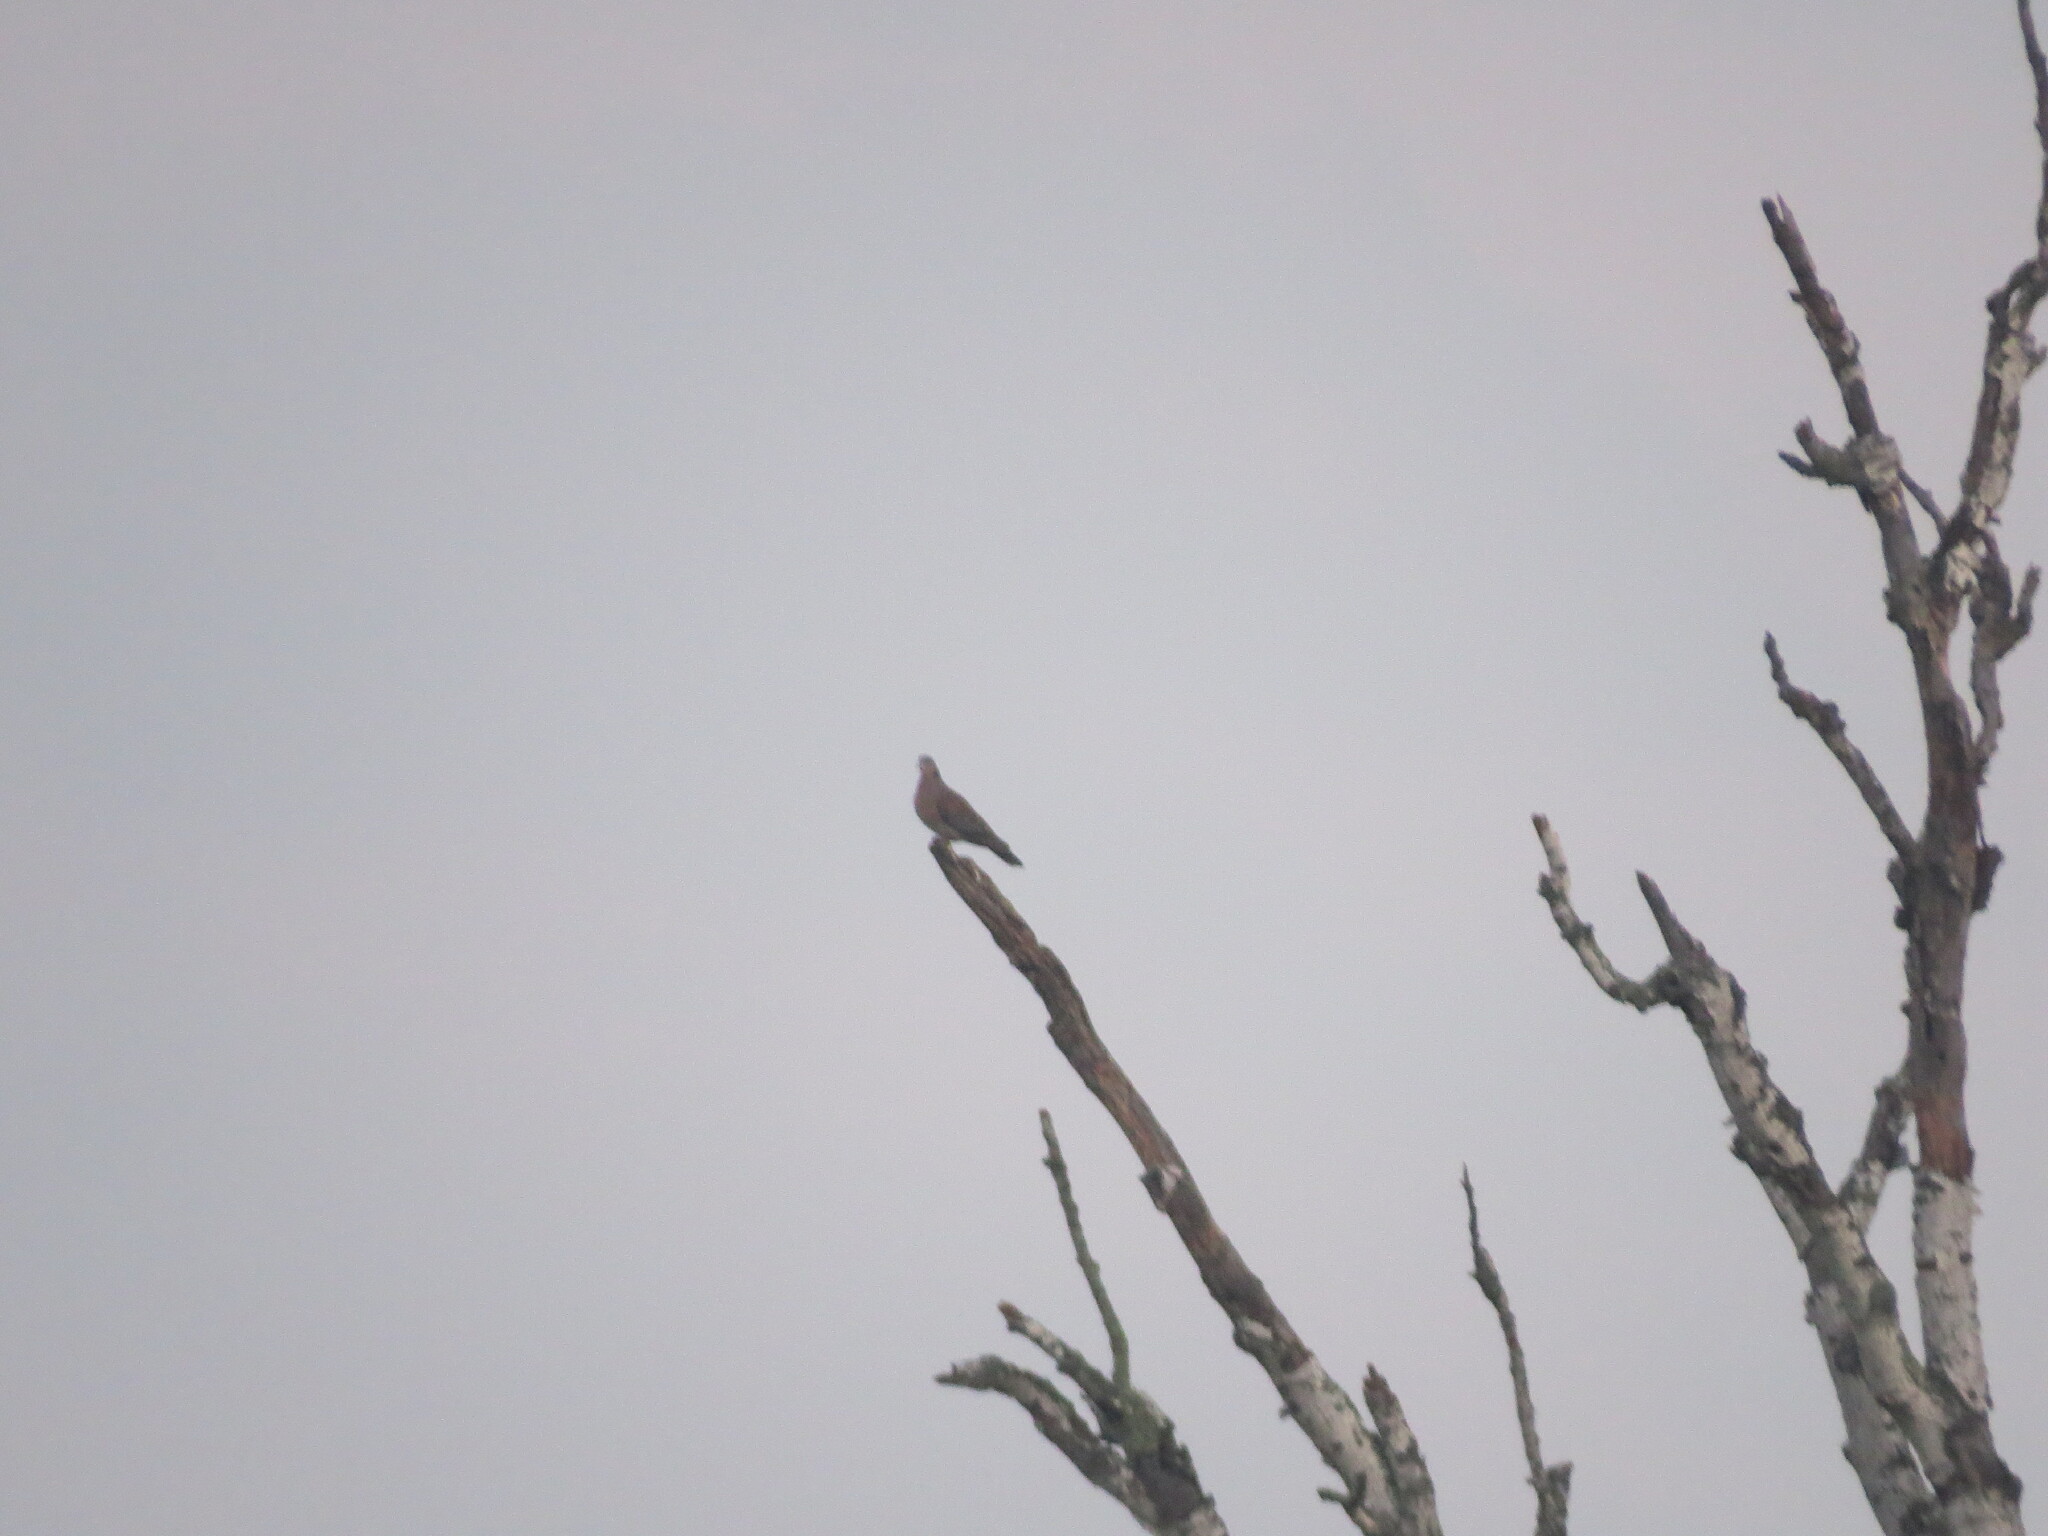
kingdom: Animalia
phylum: Chordata
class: Aves
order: Columbiformes
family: Columbidae
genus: Streptopelia
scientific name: Streptopelia orientalis
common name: Oriental turtle dove
